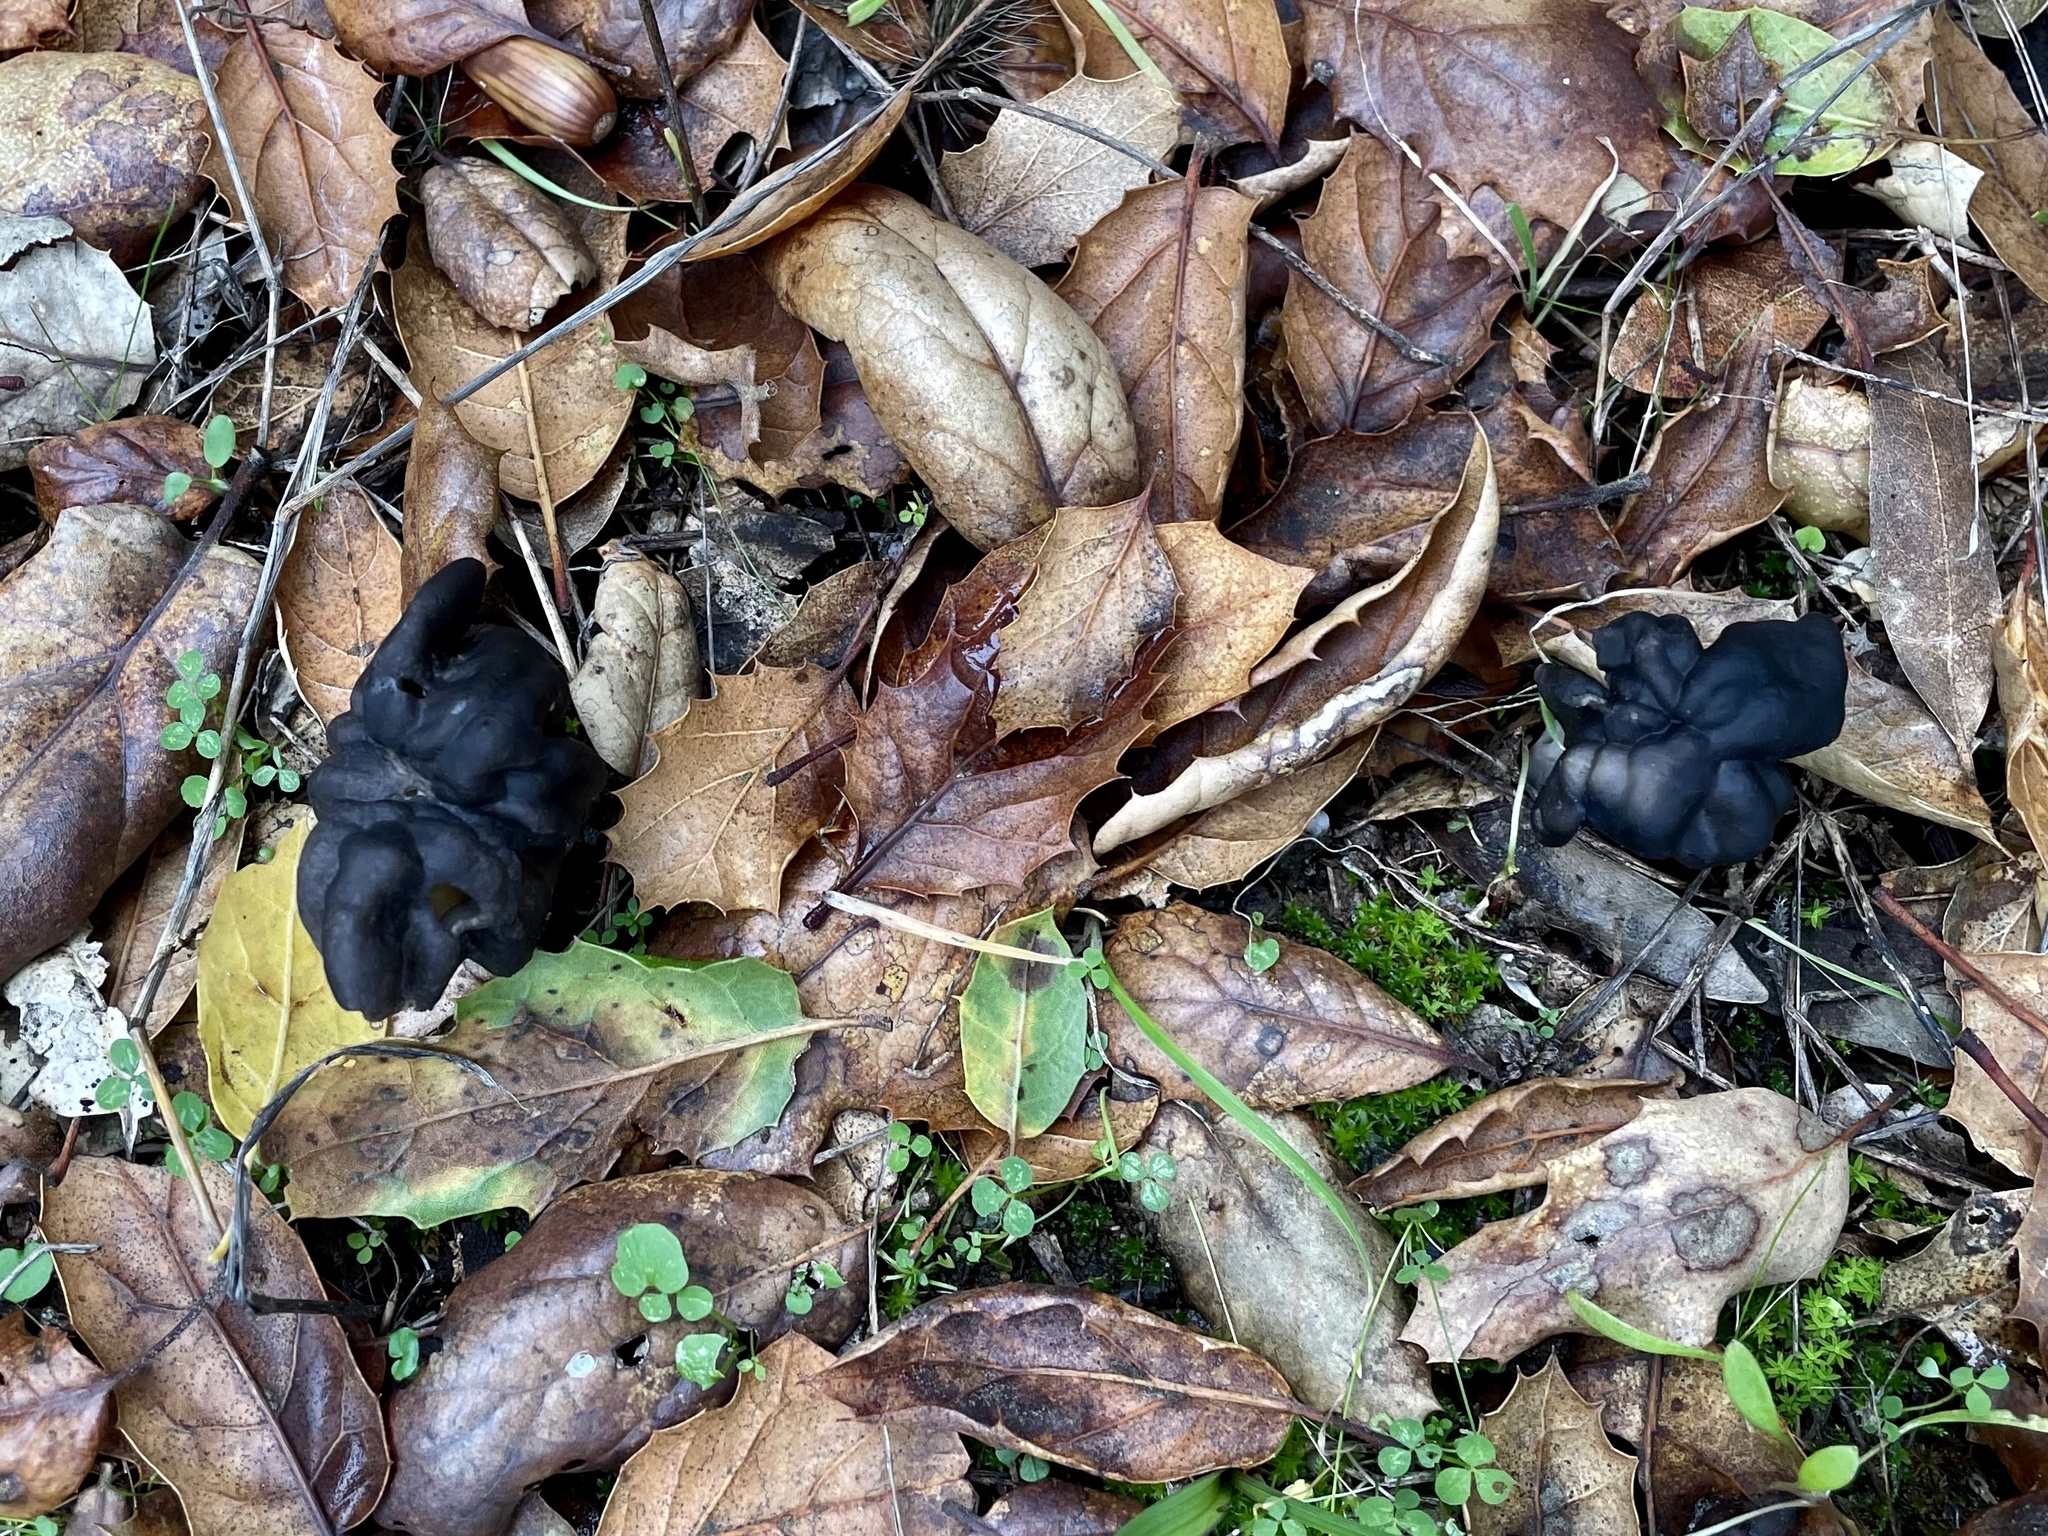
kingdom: Fungi
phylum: Ascomycota
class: Pezizomycetes
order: Pezizales
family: Helvellaceae
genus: Helvella
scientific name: Helvella dryophila
